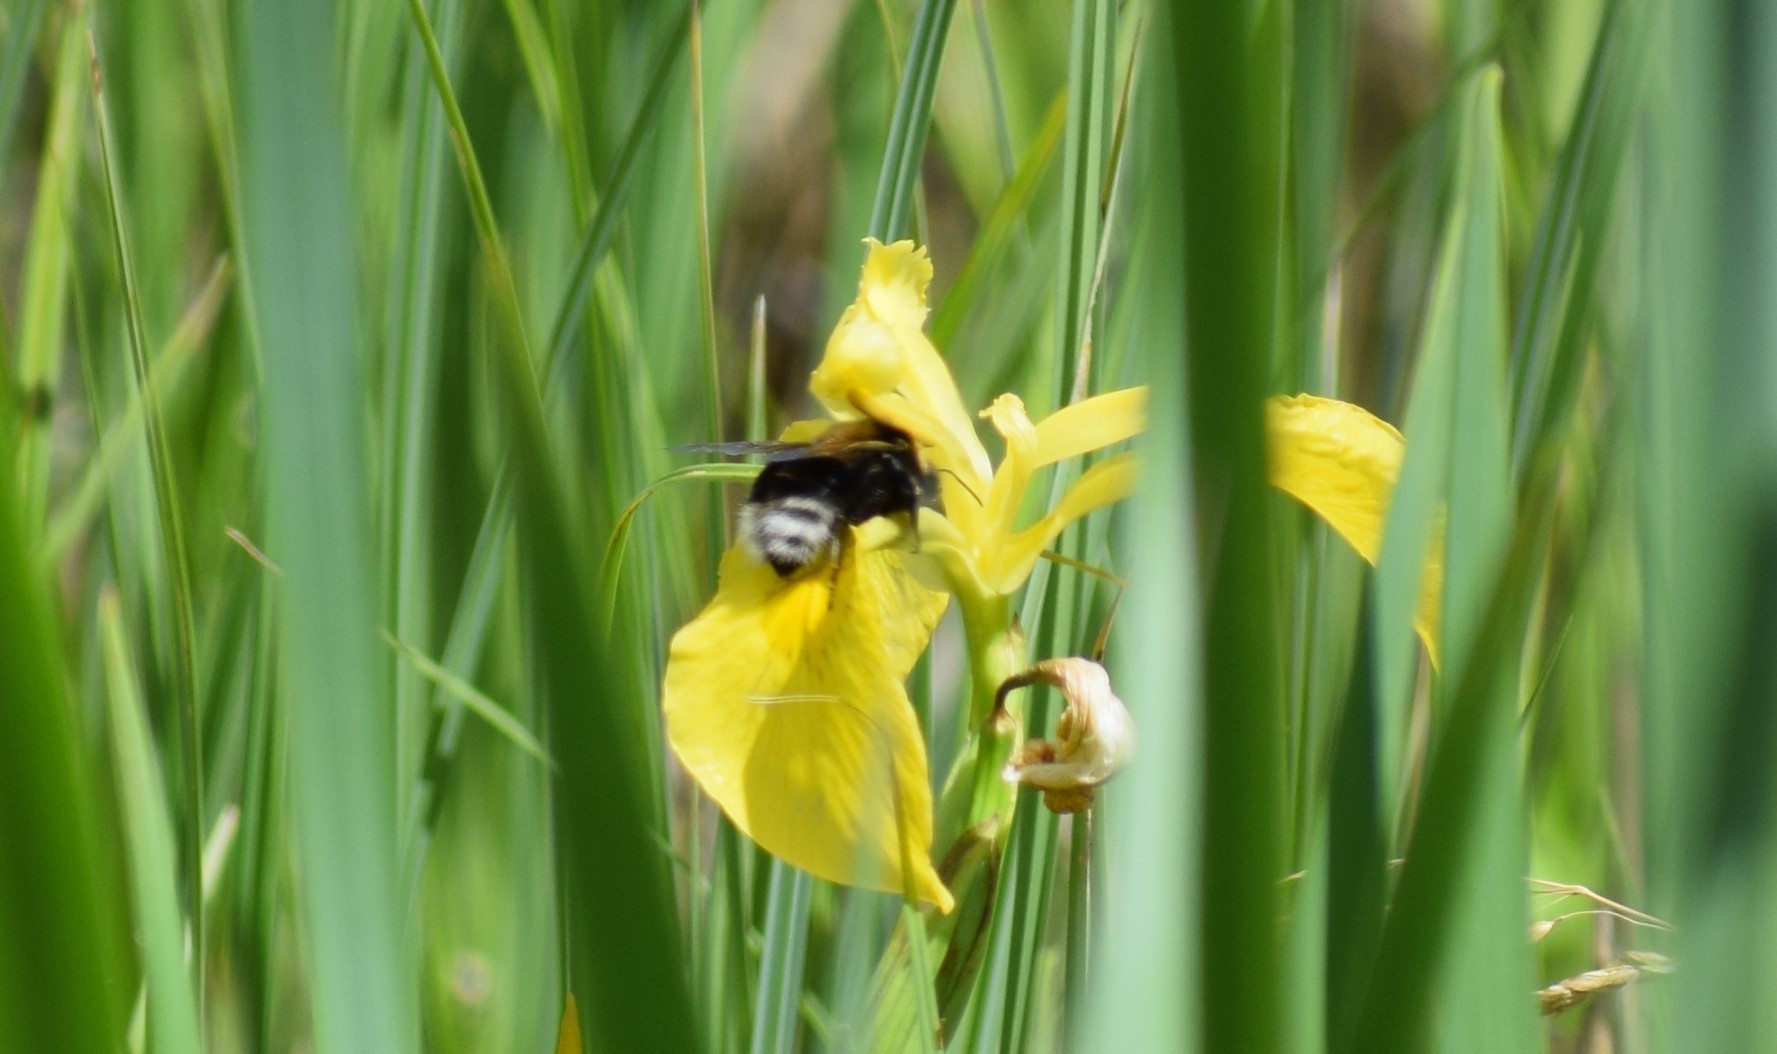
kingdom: Animalia
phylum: Arthropoda
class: Insecta
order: Hymenoptera
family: Apidae
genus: Bombus
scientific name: Bombus hypnorum
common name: New garden bumblebee
